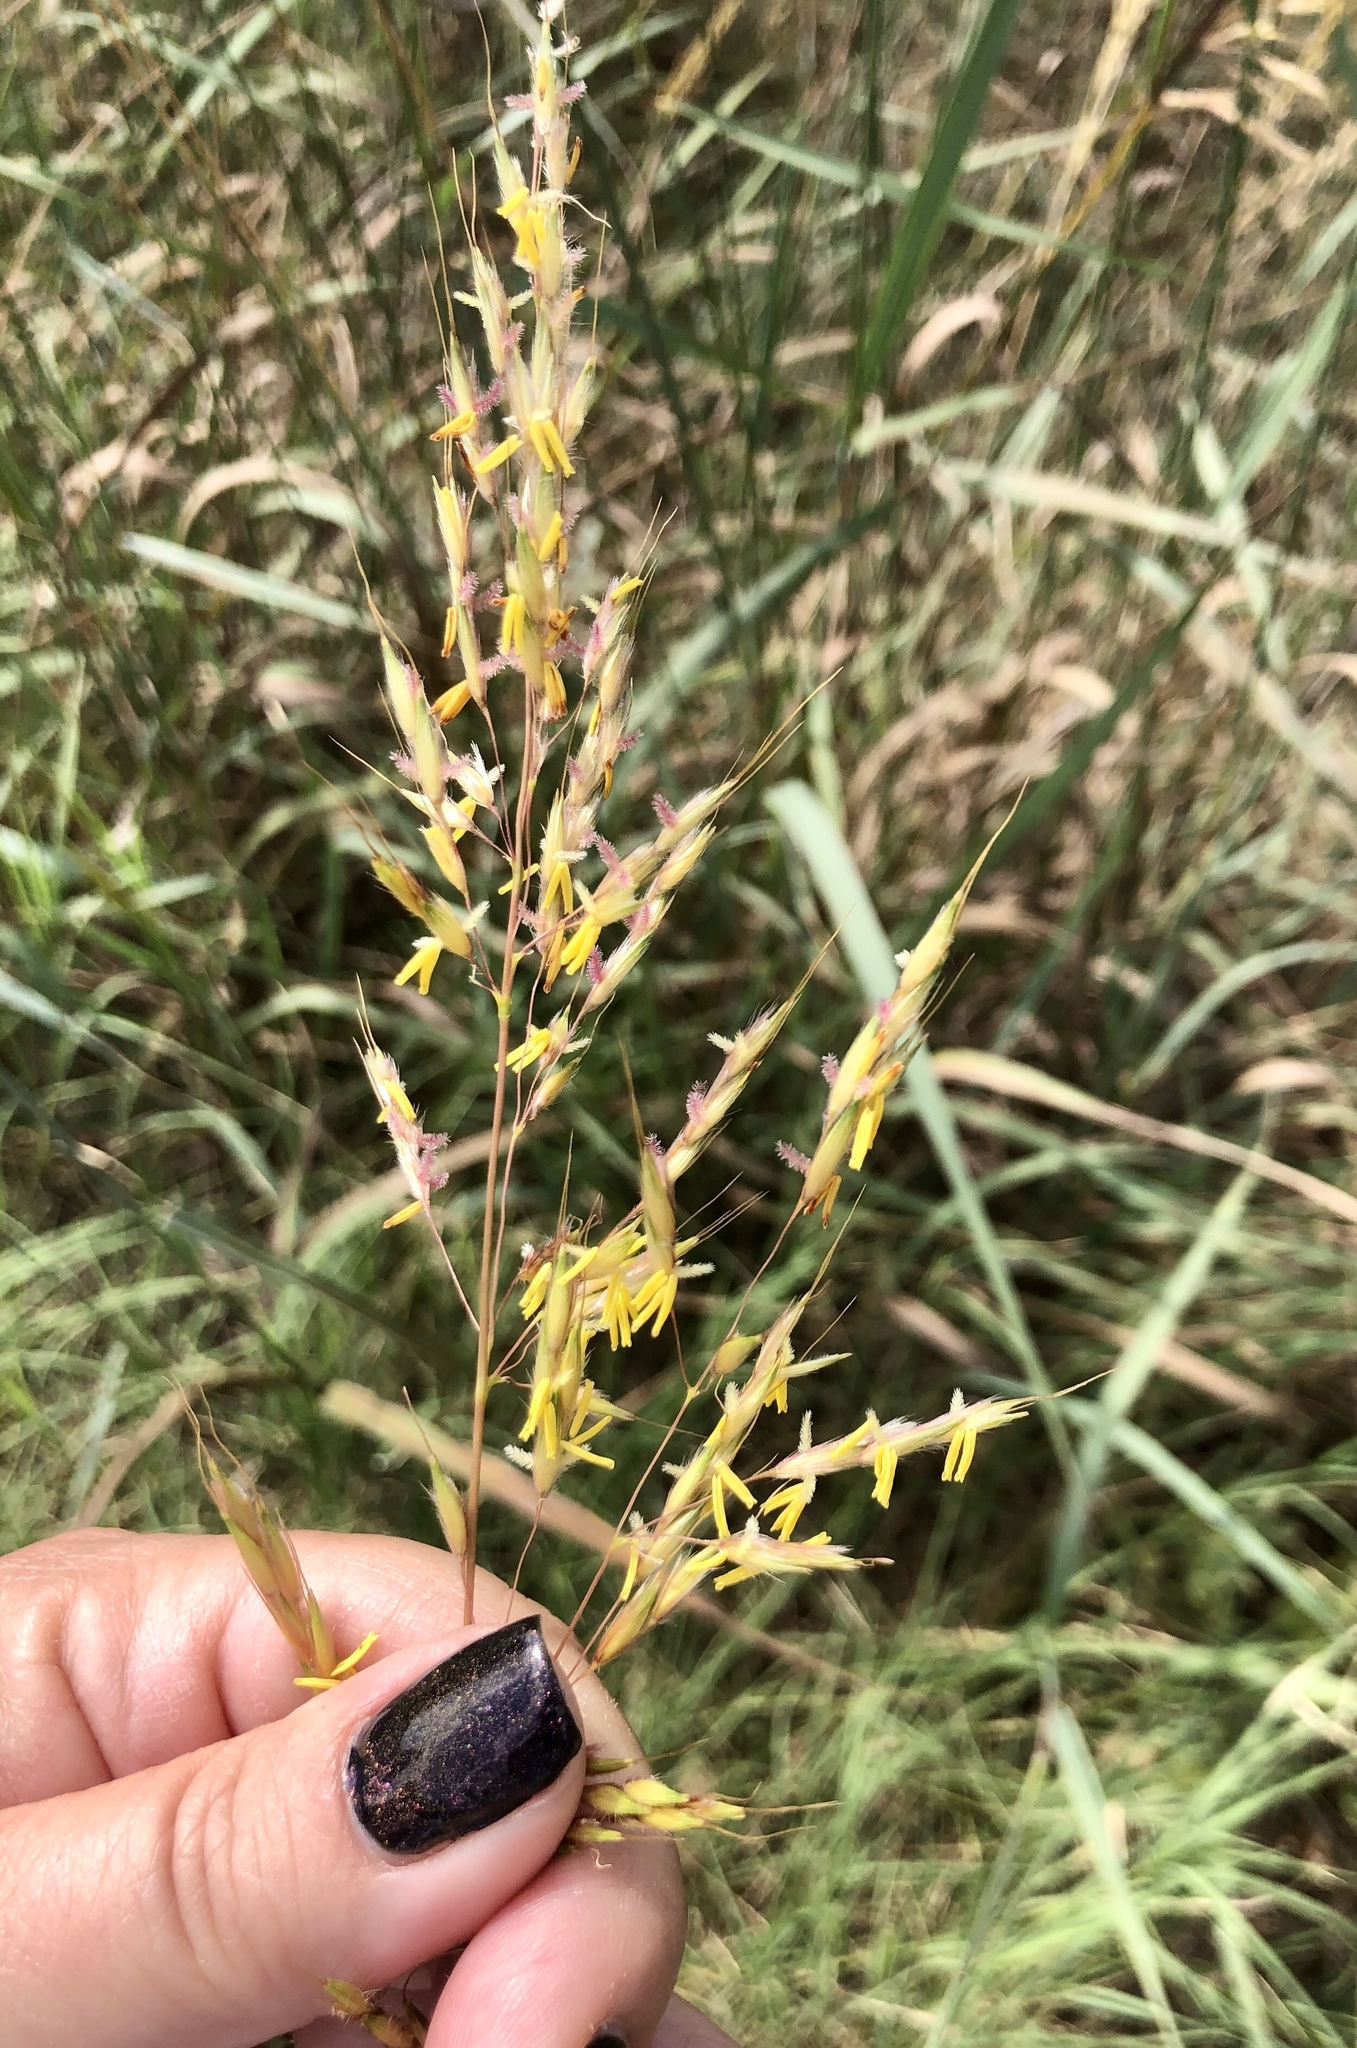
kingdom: Plantae
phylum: Tracheophyta
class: Liliopsida
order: Poales
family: Poaceae
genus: Sorghastrum
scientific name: Sorghastrum nutans
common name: Indian grass
